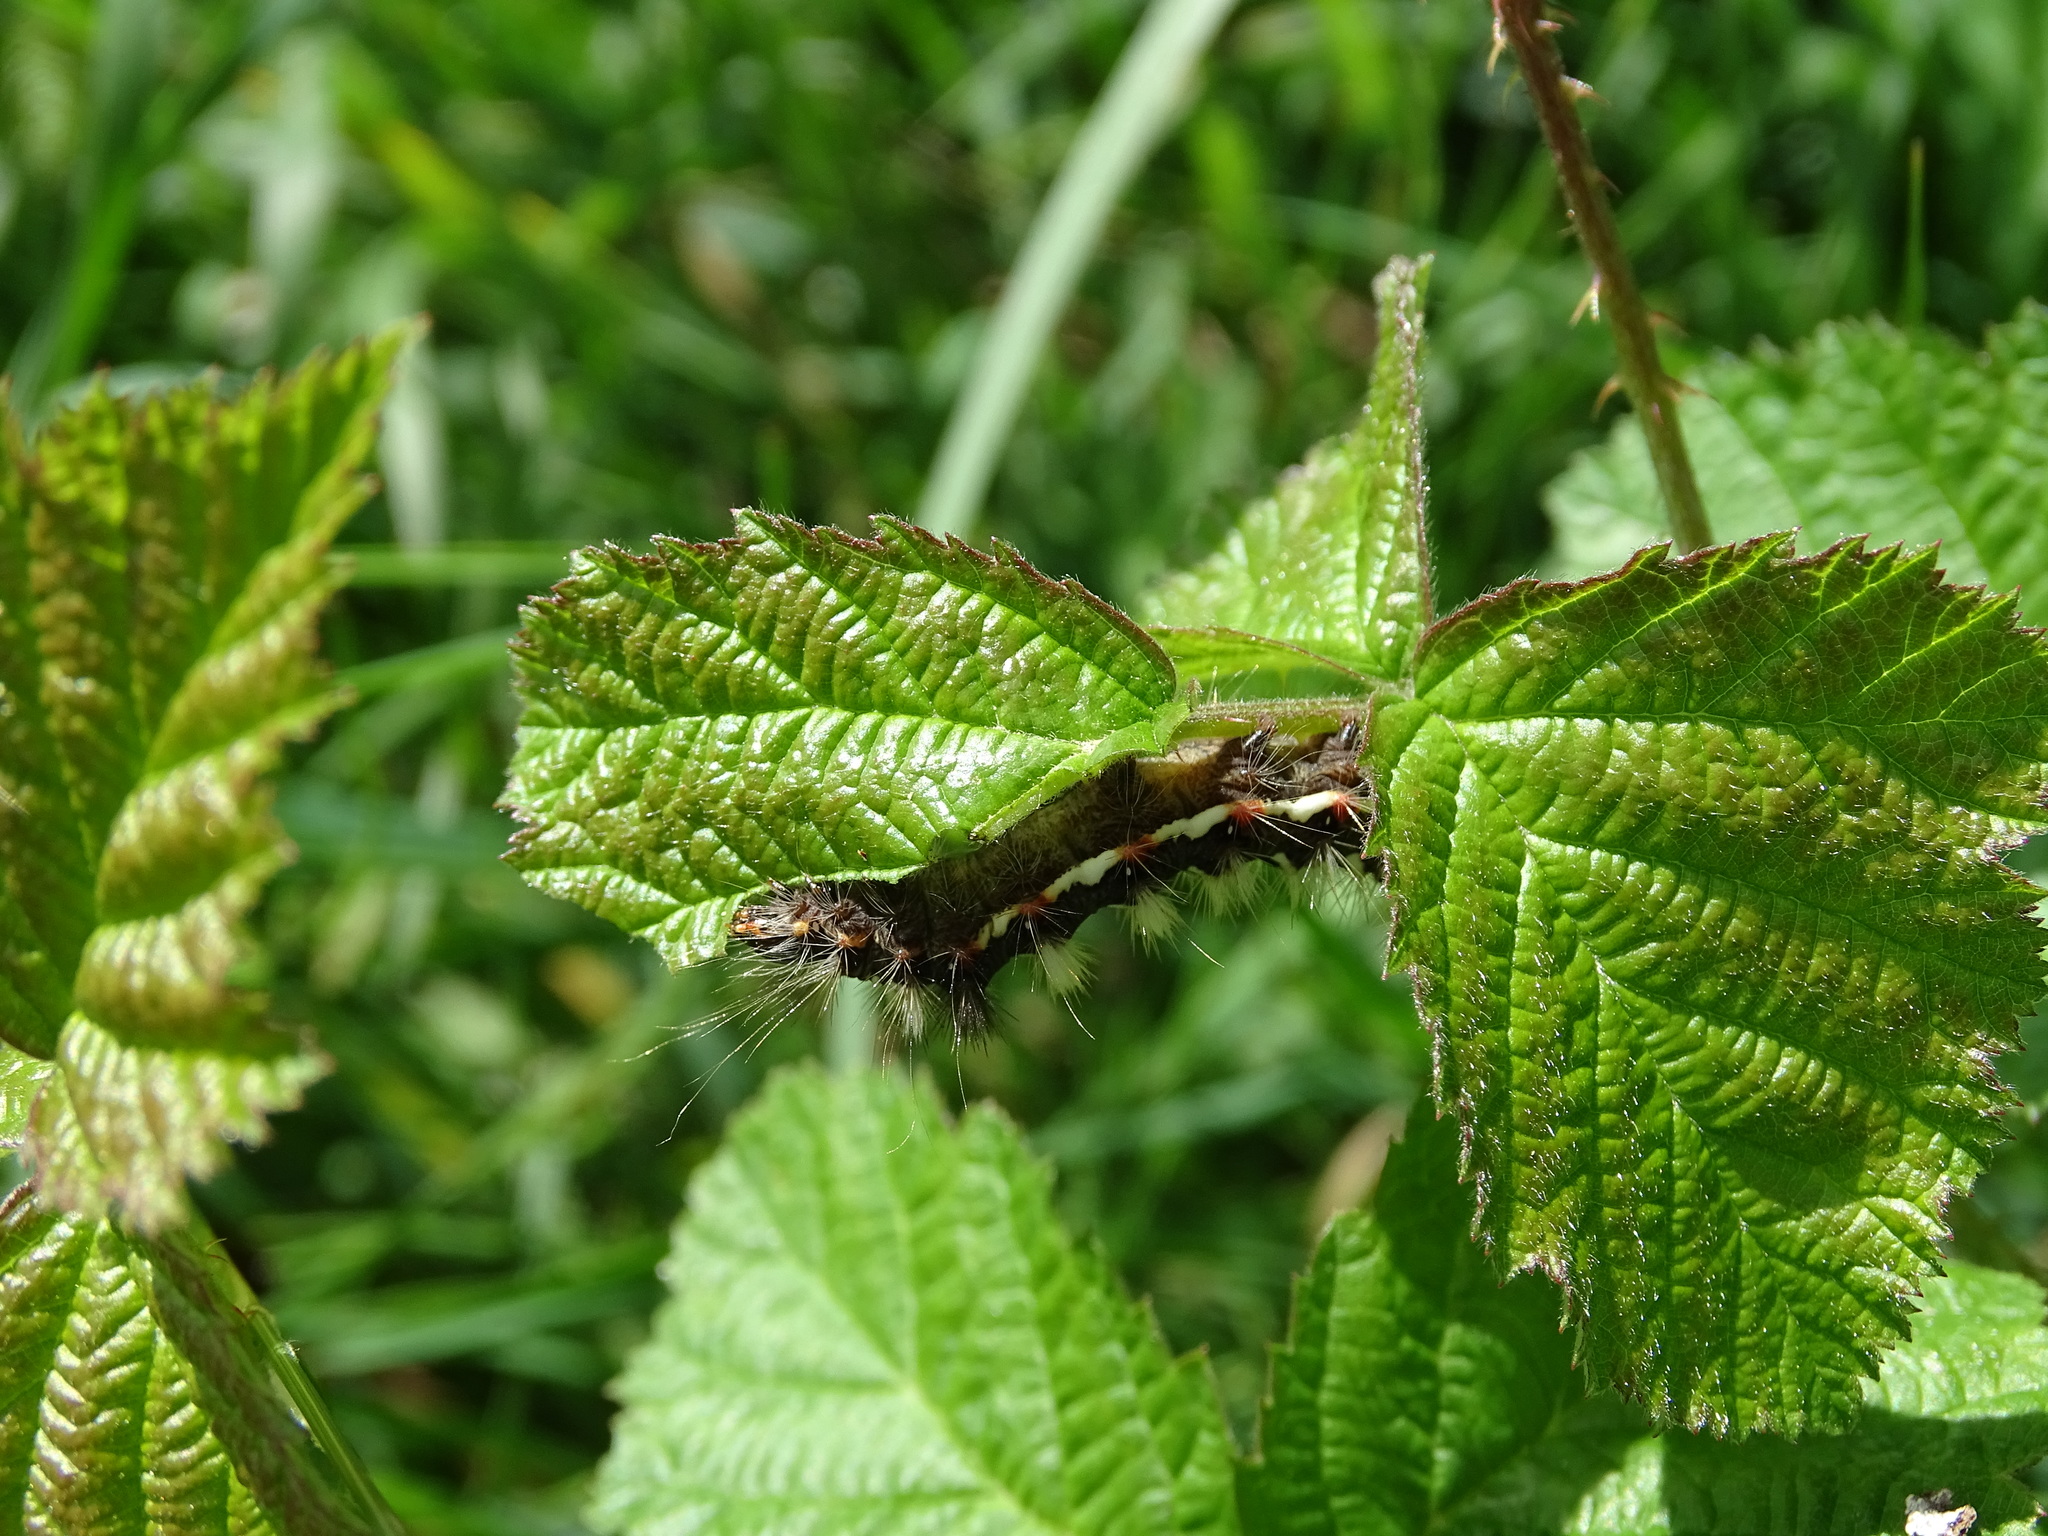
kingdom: Animalia
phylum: Arthropoda
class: Insecta
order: Lepidoptera
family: Noctuidae
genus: Acronicta
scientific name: Acronicta rumicis
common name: Knot grass
